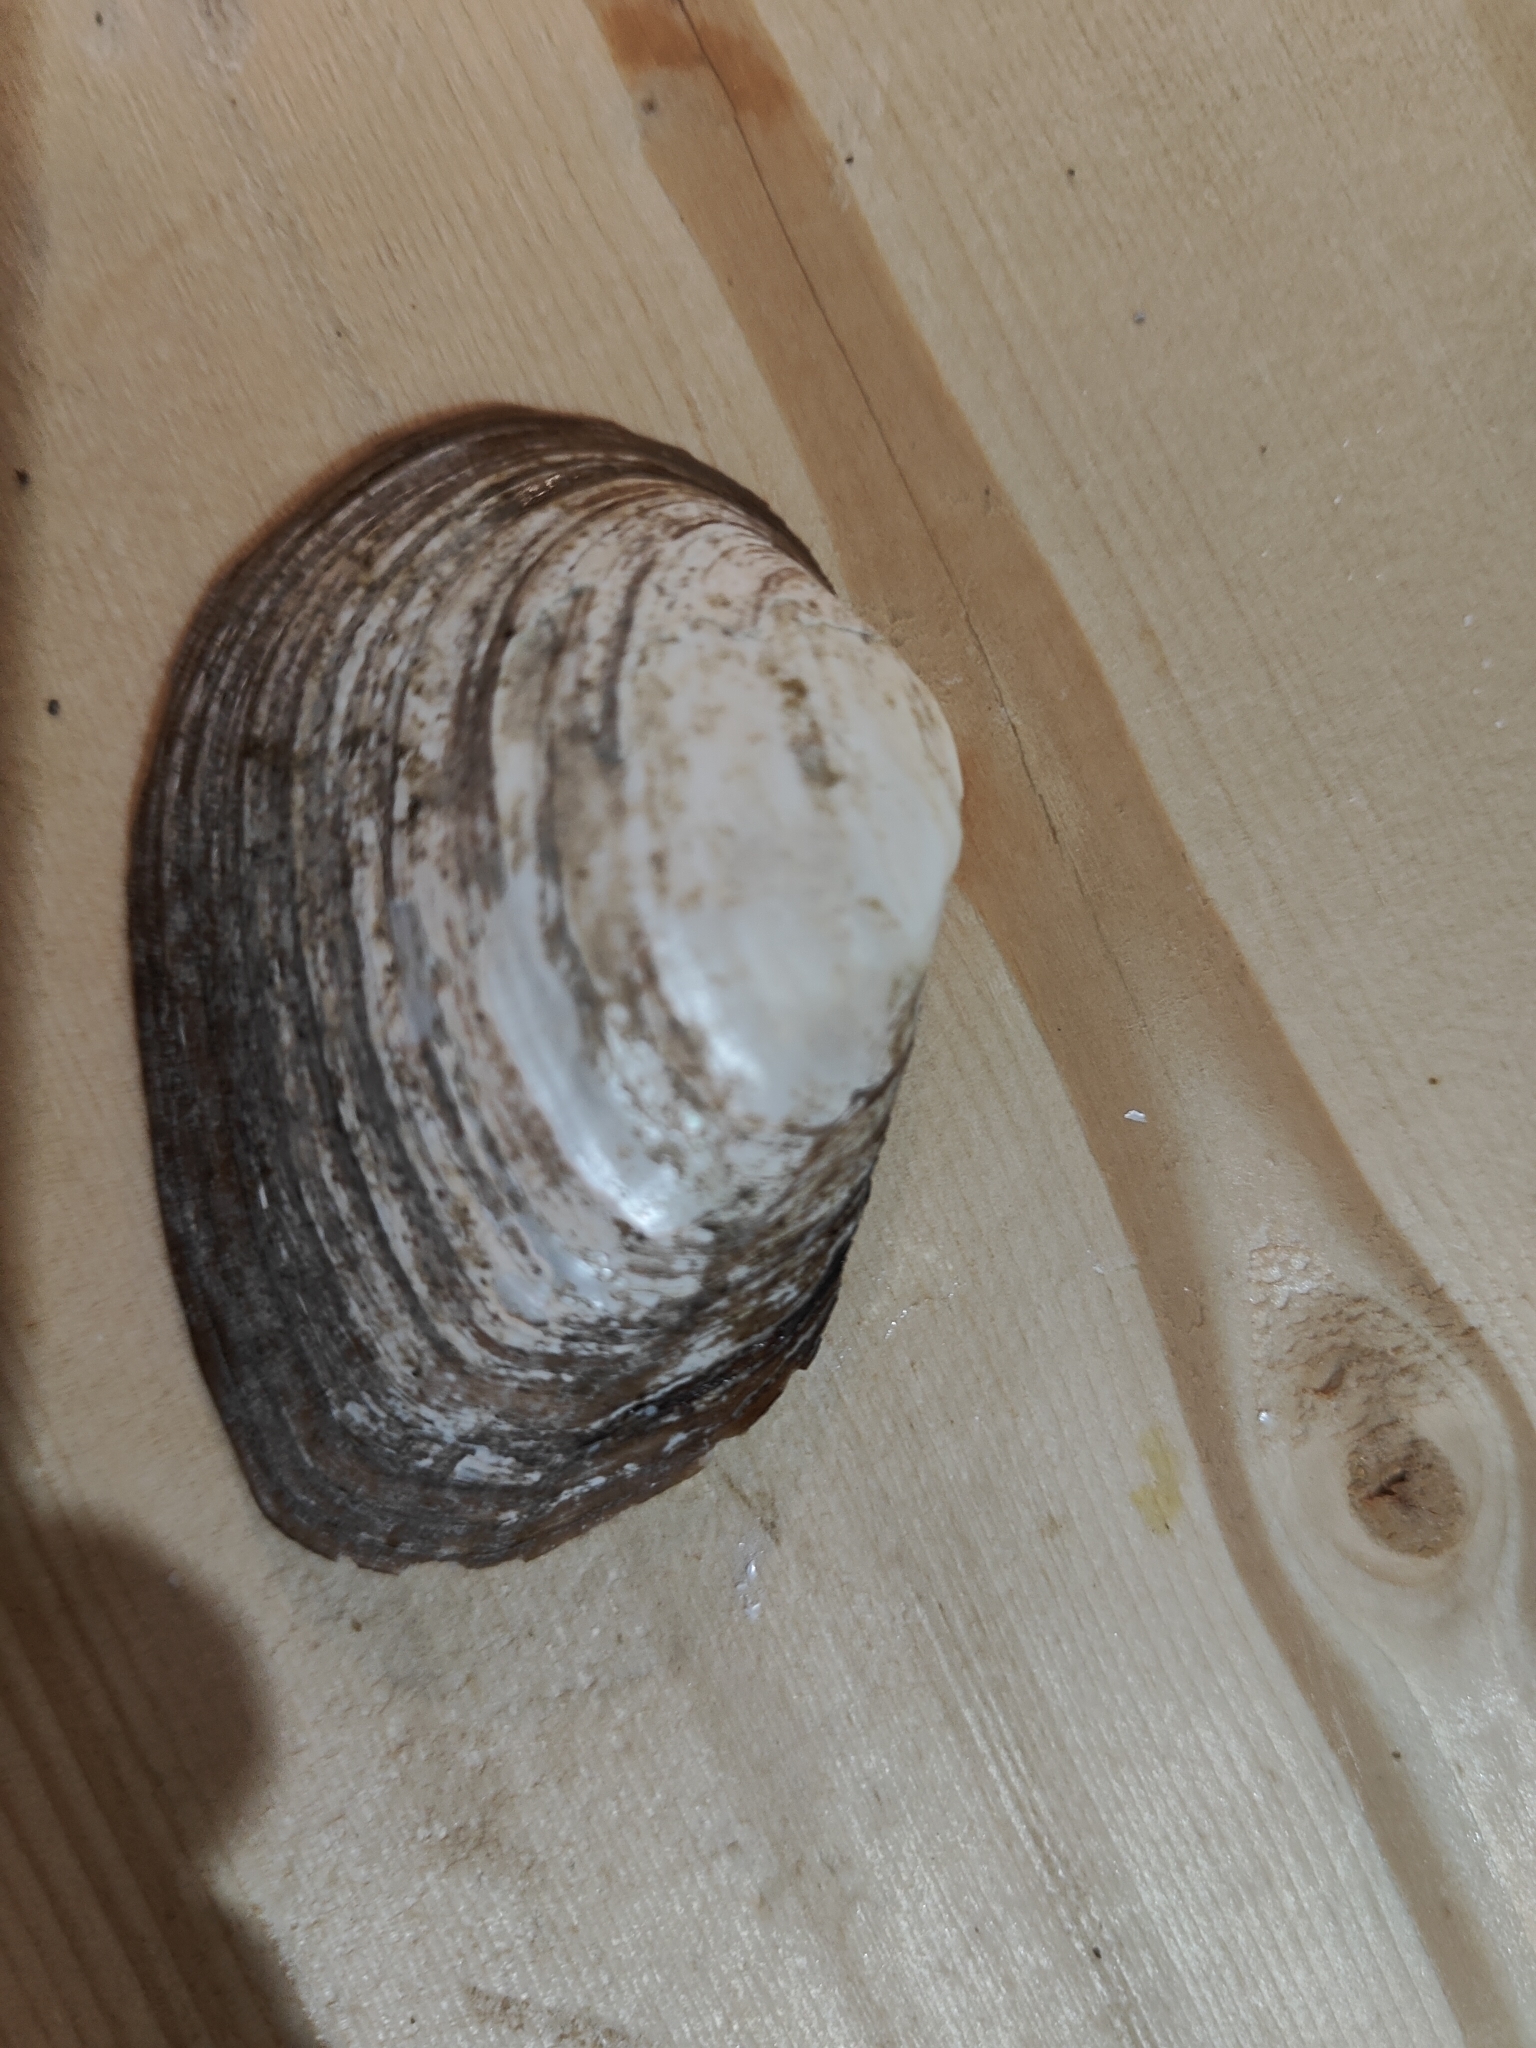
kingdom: Animalia
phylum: Mollusca
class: Bivalvia
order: Unionida
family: Unionidae
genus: Fusconaia
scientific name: Fusconaia flava
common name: Wabash pigtoe
